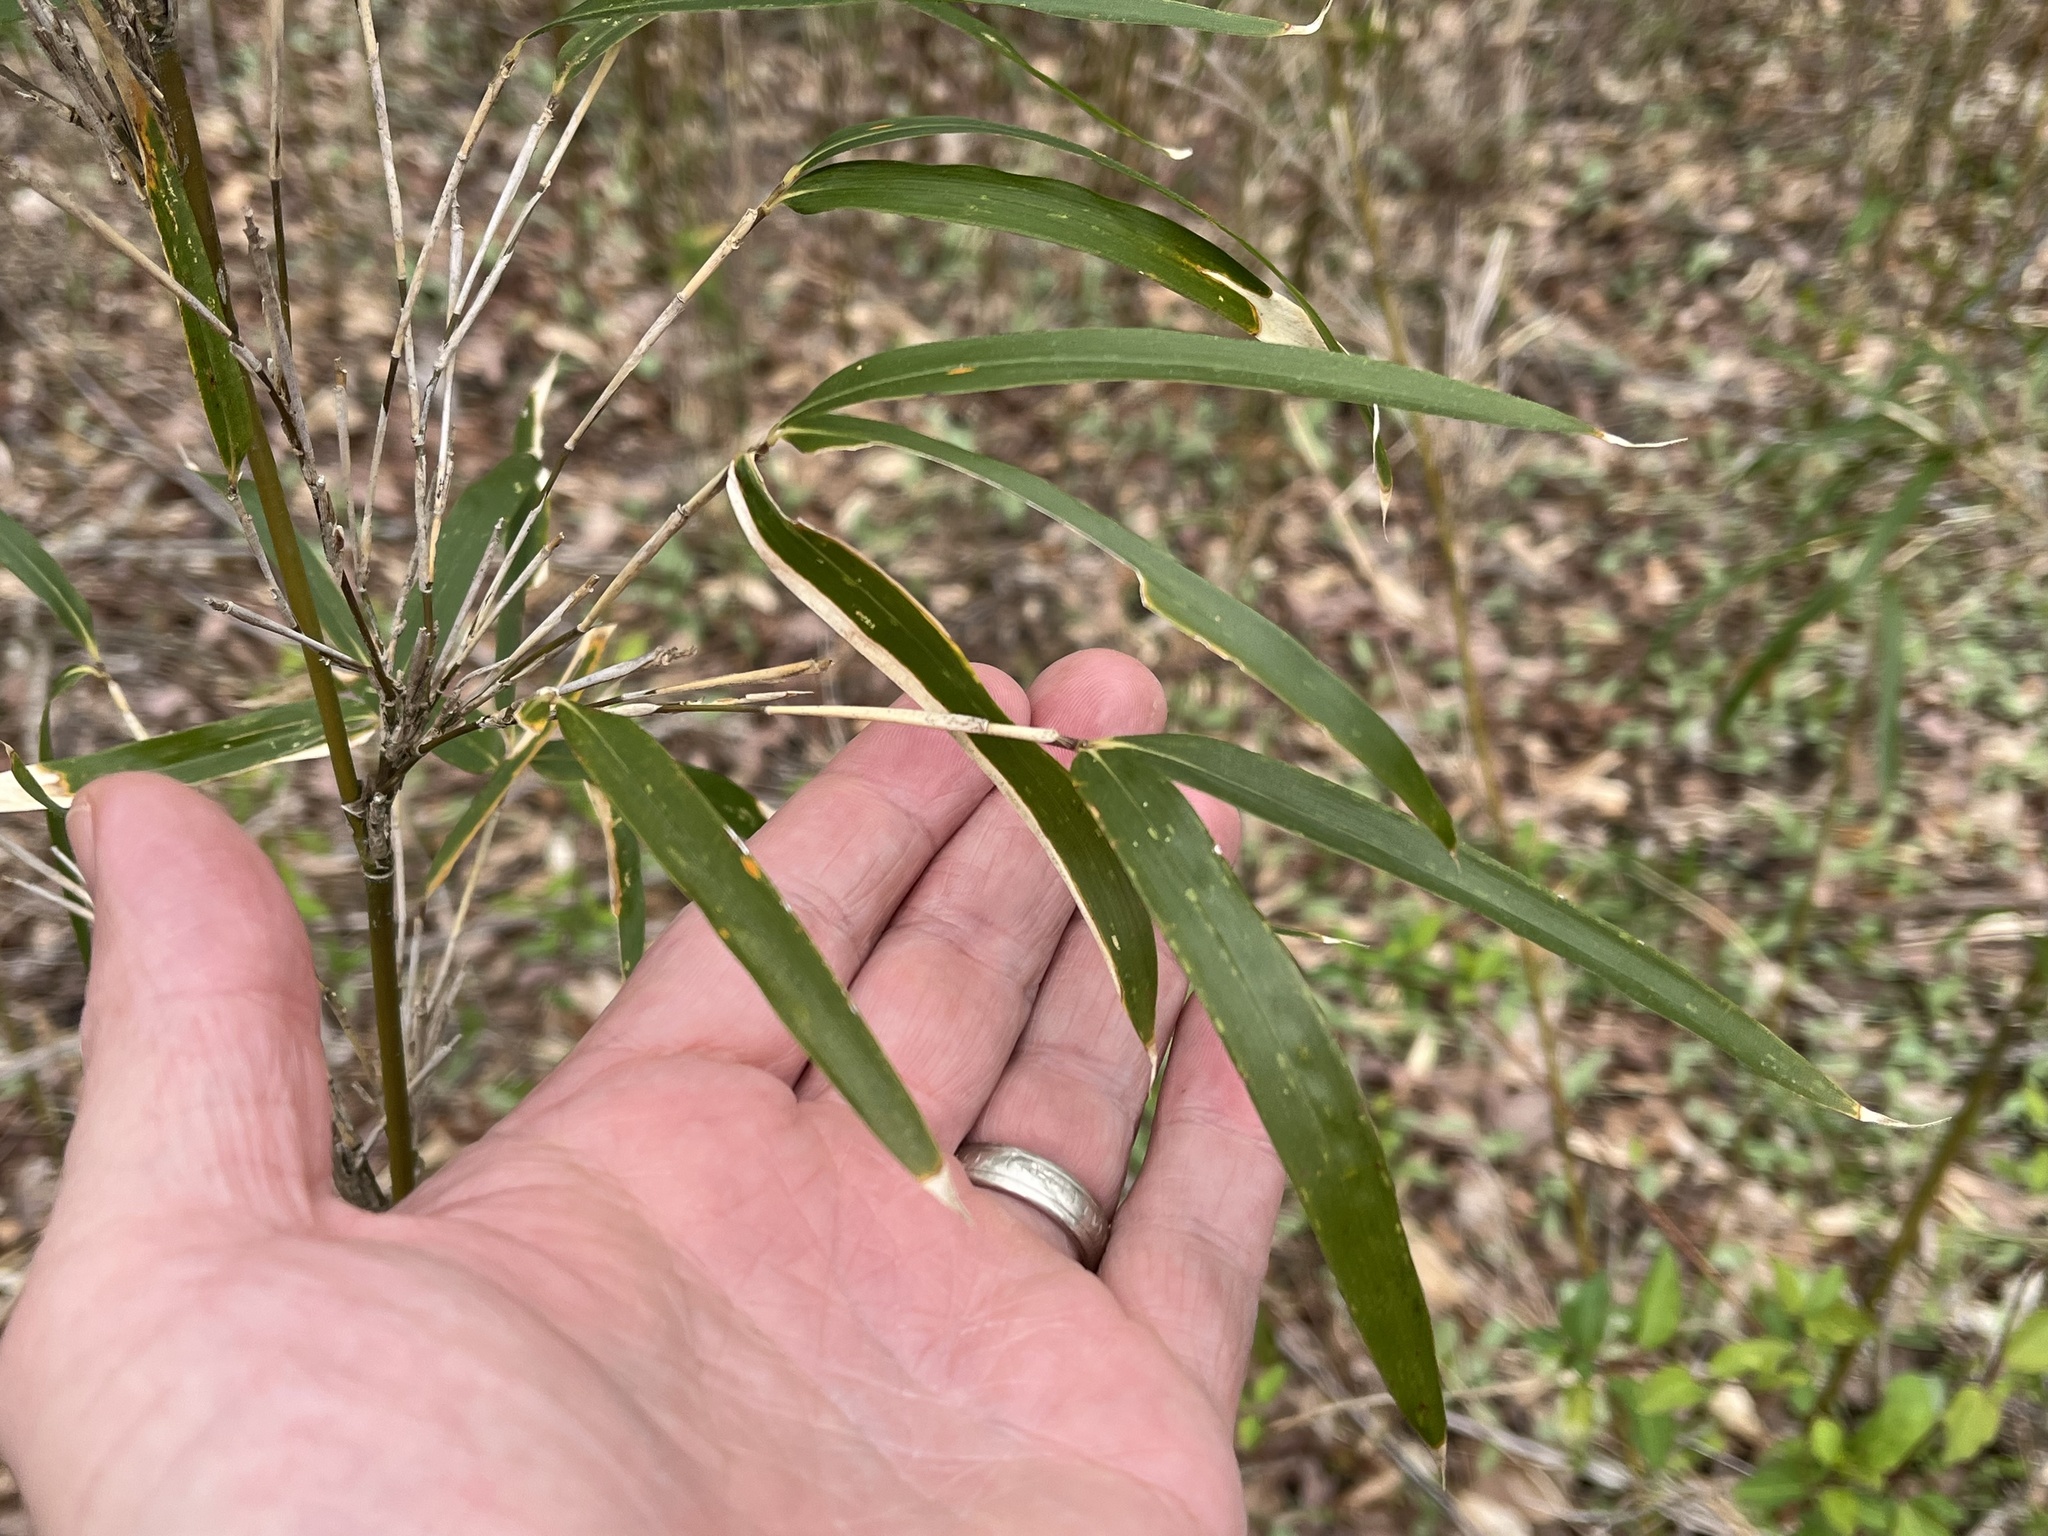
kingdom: Plantae
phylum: Tracheophyta
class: Liliopsida
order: Poales
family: Poaceae
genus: Arundinaria
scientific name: Arundinaria gigantea
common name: Giant cane
